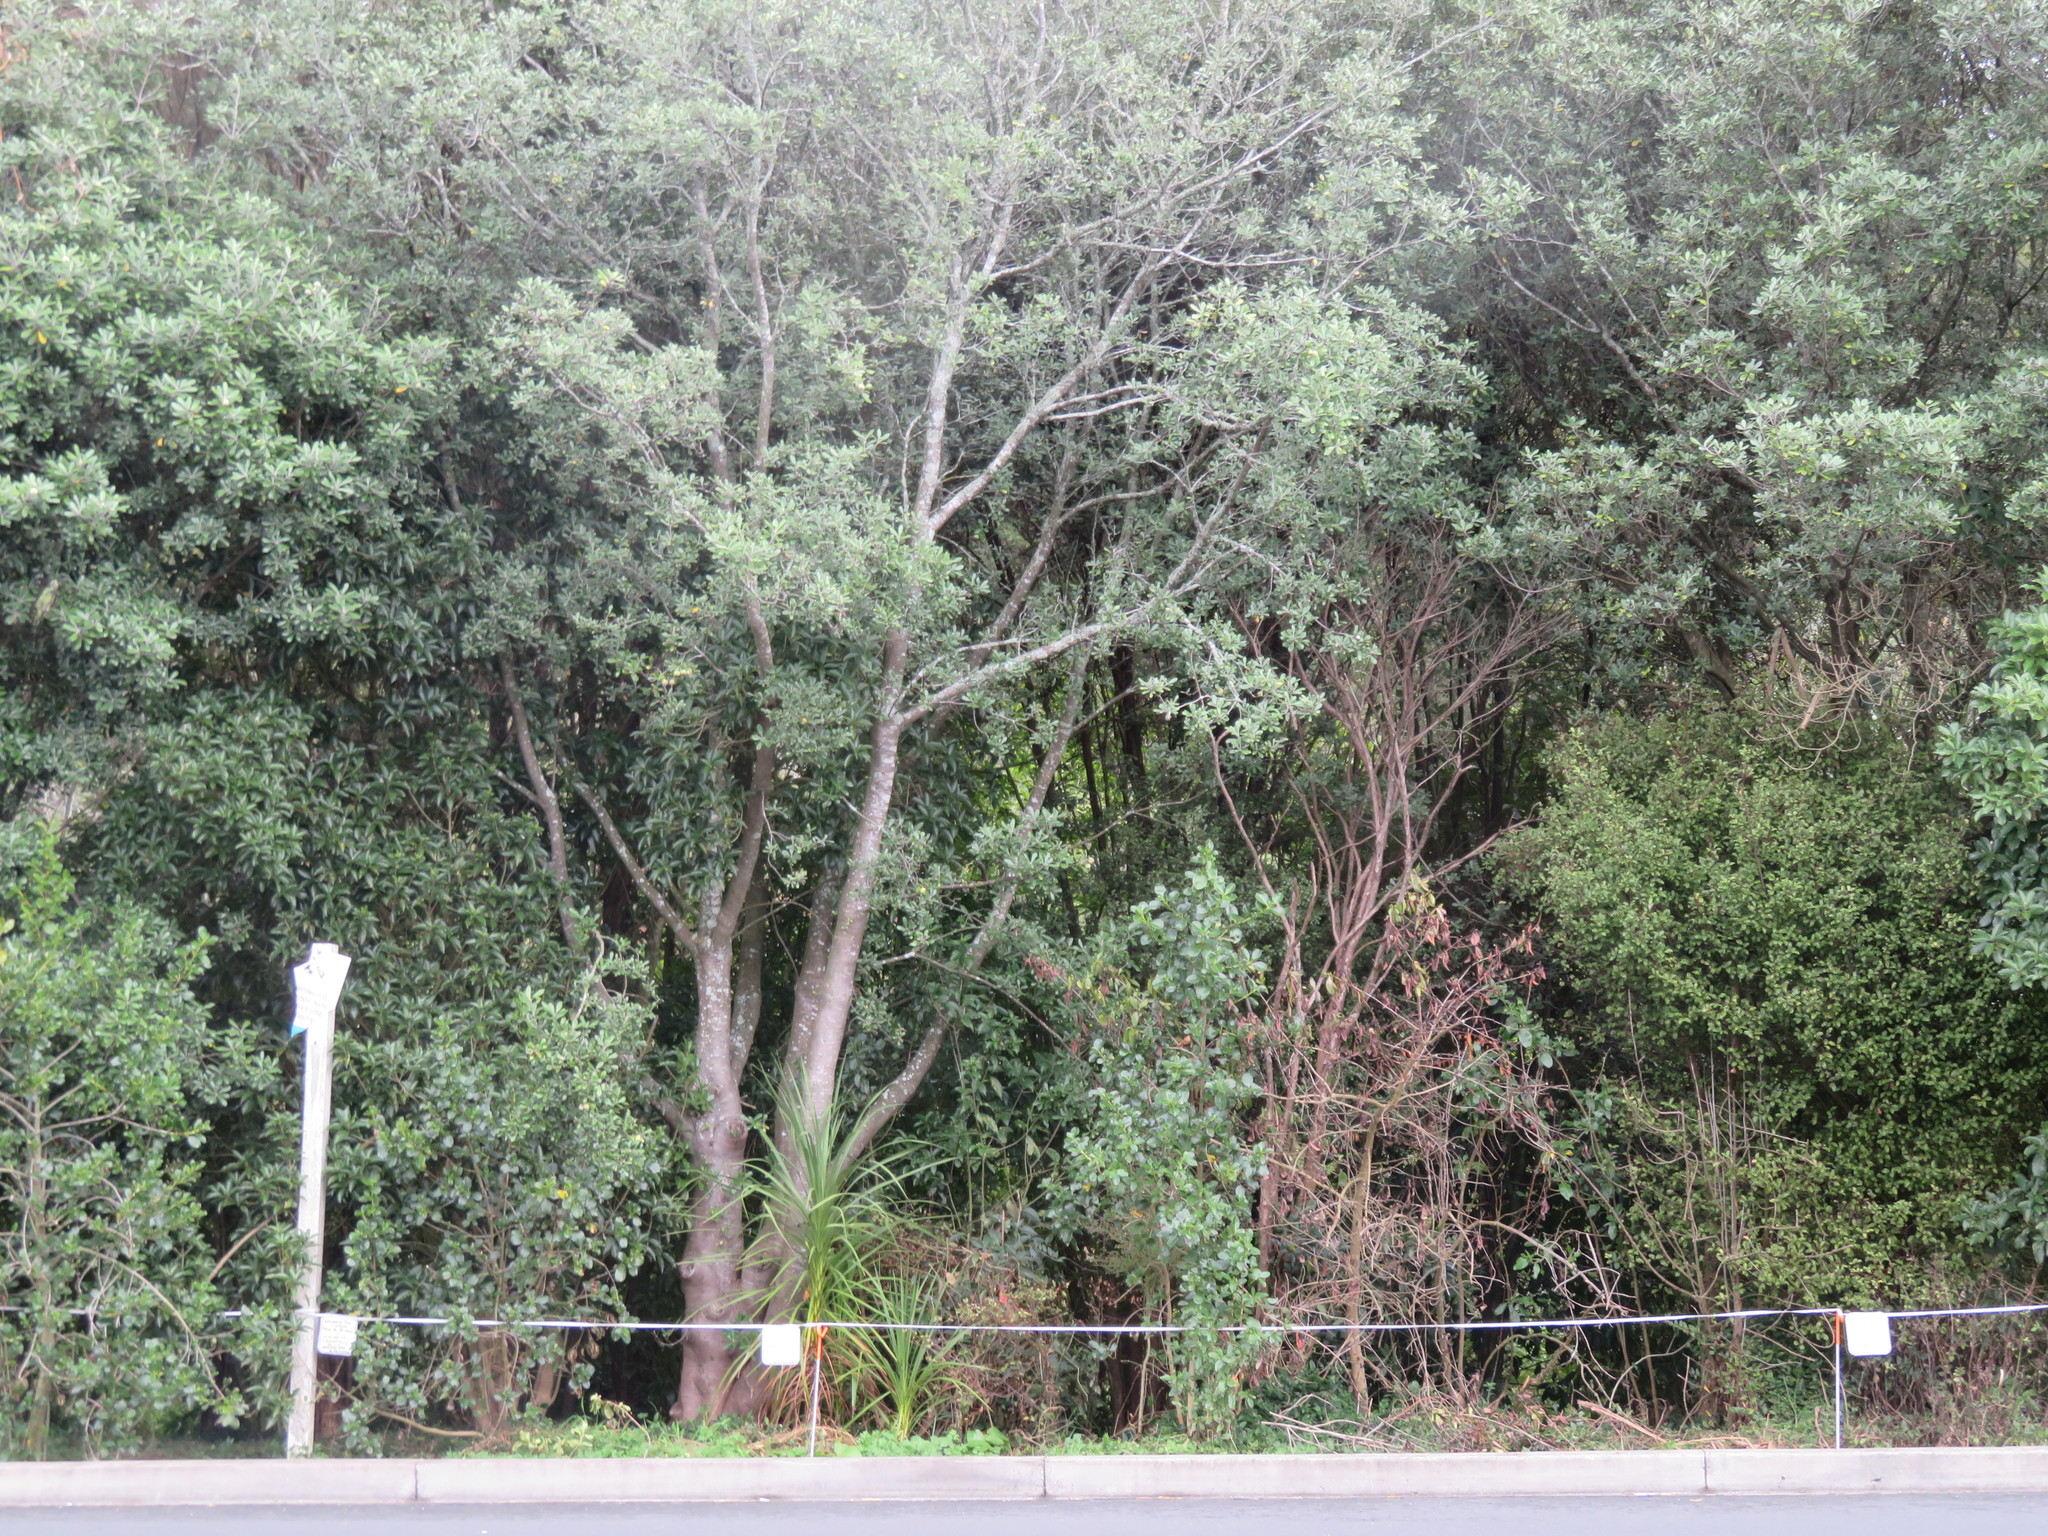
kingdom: Plantae
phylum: Tracheophyta
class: Liliopsida
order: Asparagales
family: Asparagaceae
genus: Cordyline
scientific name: Cordyline australis
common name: Cabbage-palm
